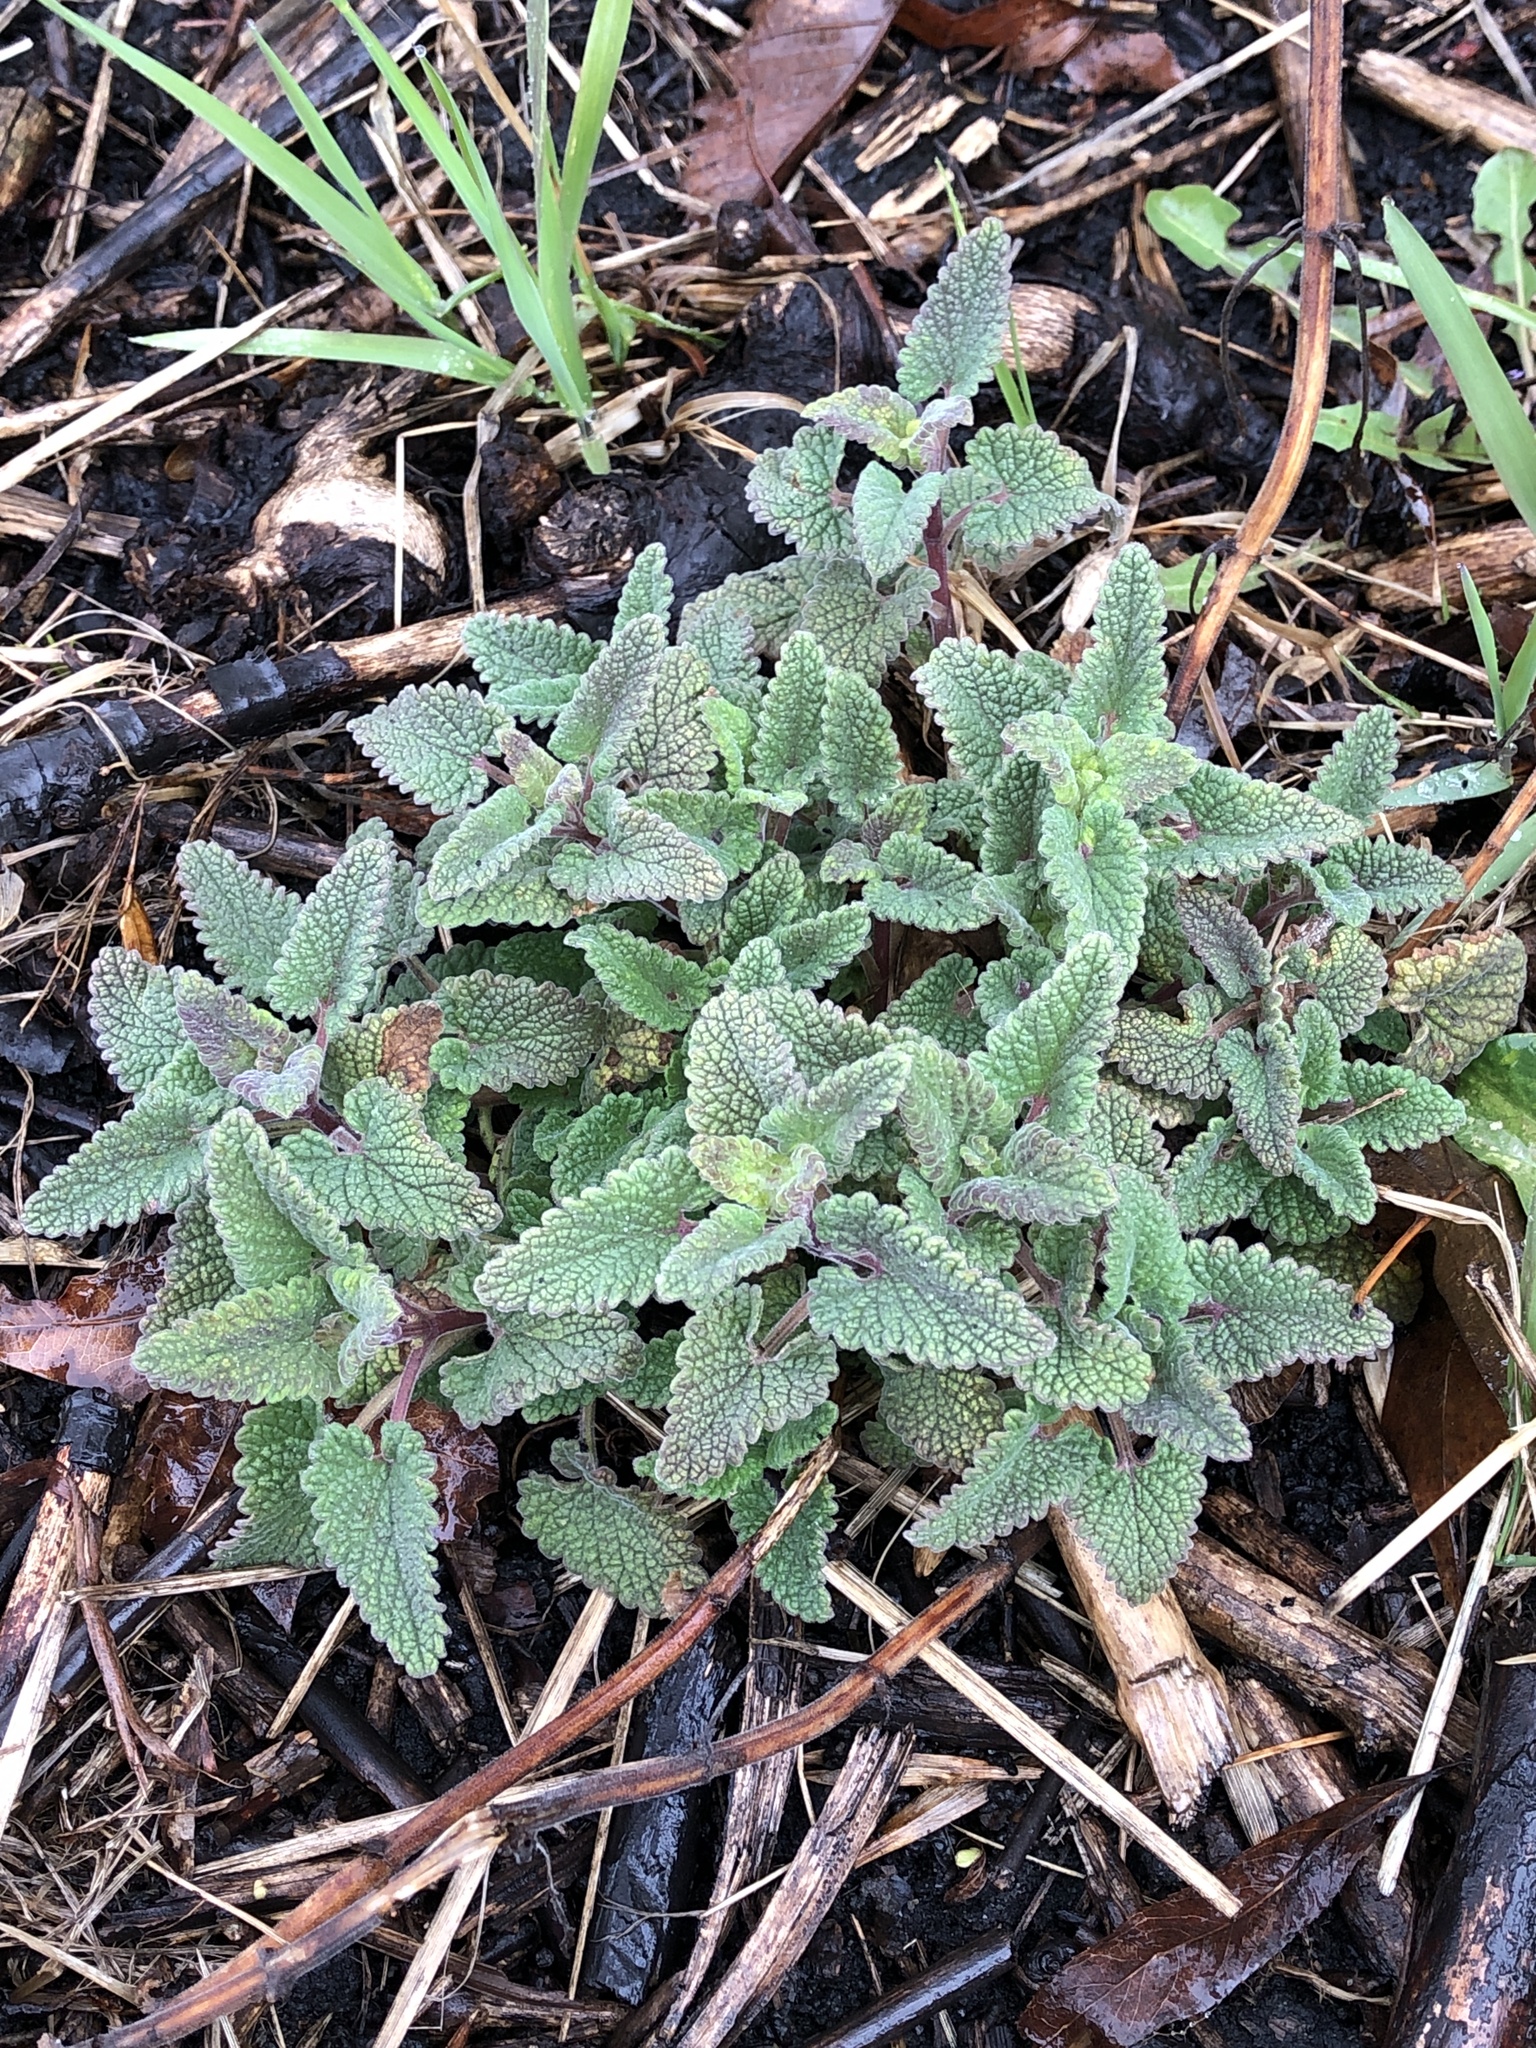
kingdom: Plantae
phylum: Tracheophyta
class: Magnoliopsida
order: Lamiales
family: Lamiaceae
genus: Nepeta
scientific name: Nepeta cataria
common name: Catnip
